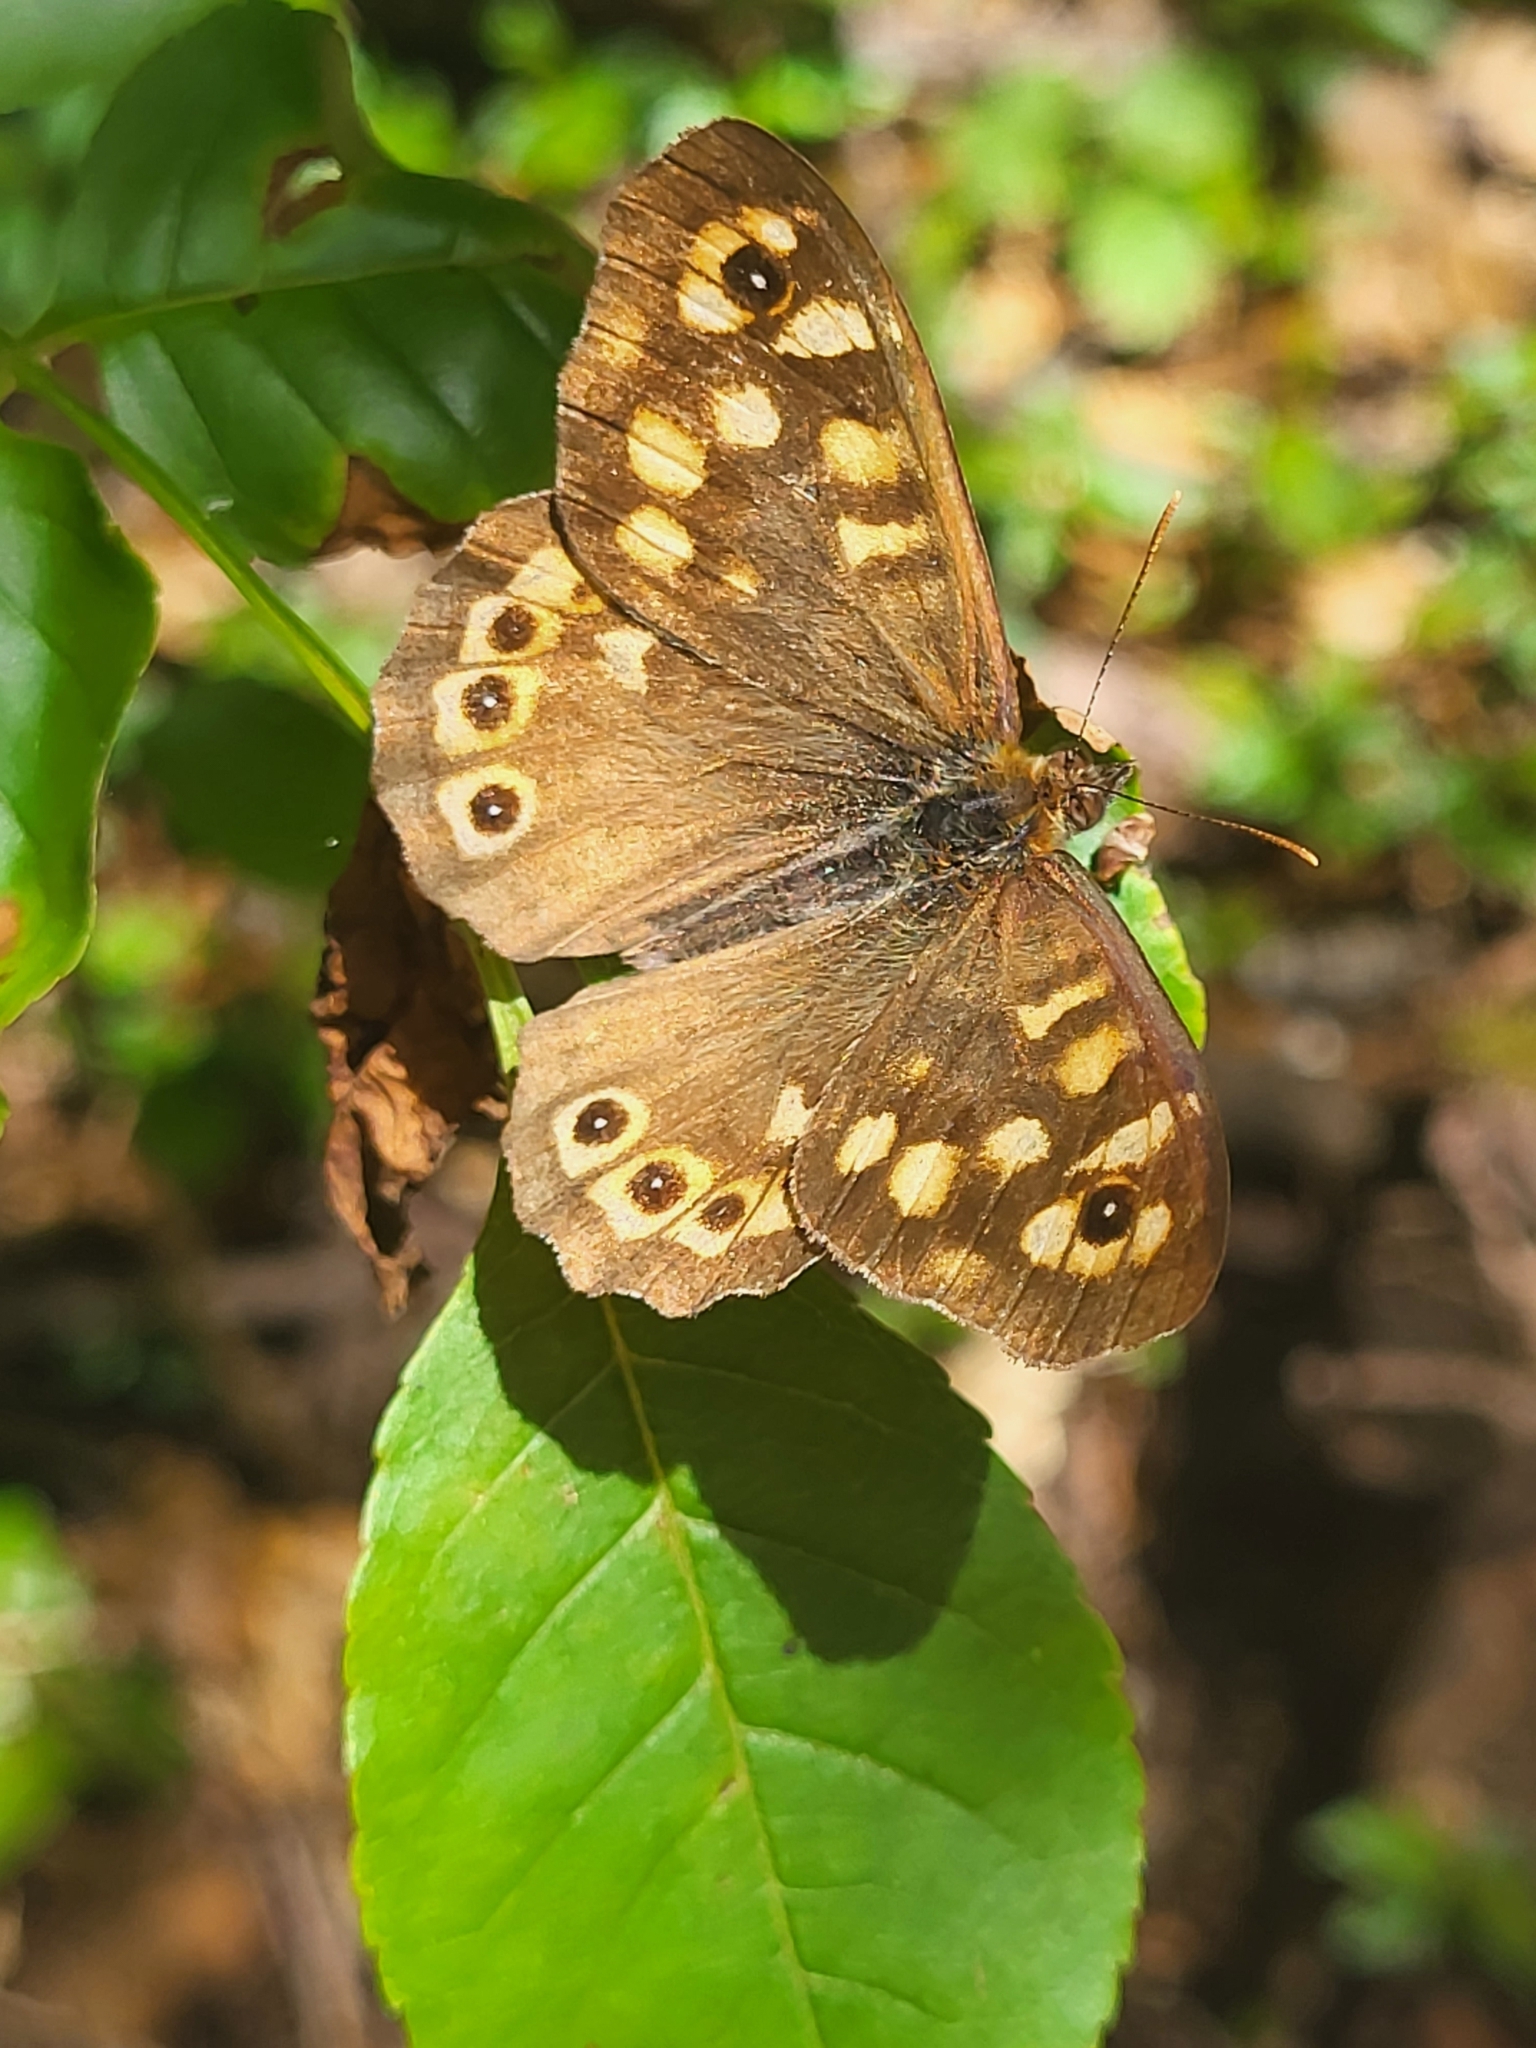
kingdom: Animalia
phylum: Arthropoda
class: Insecta
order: Lepidoptera
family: Nymphalidae
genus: Pararge
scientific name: Pararge aegeria
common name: Speckled wood
